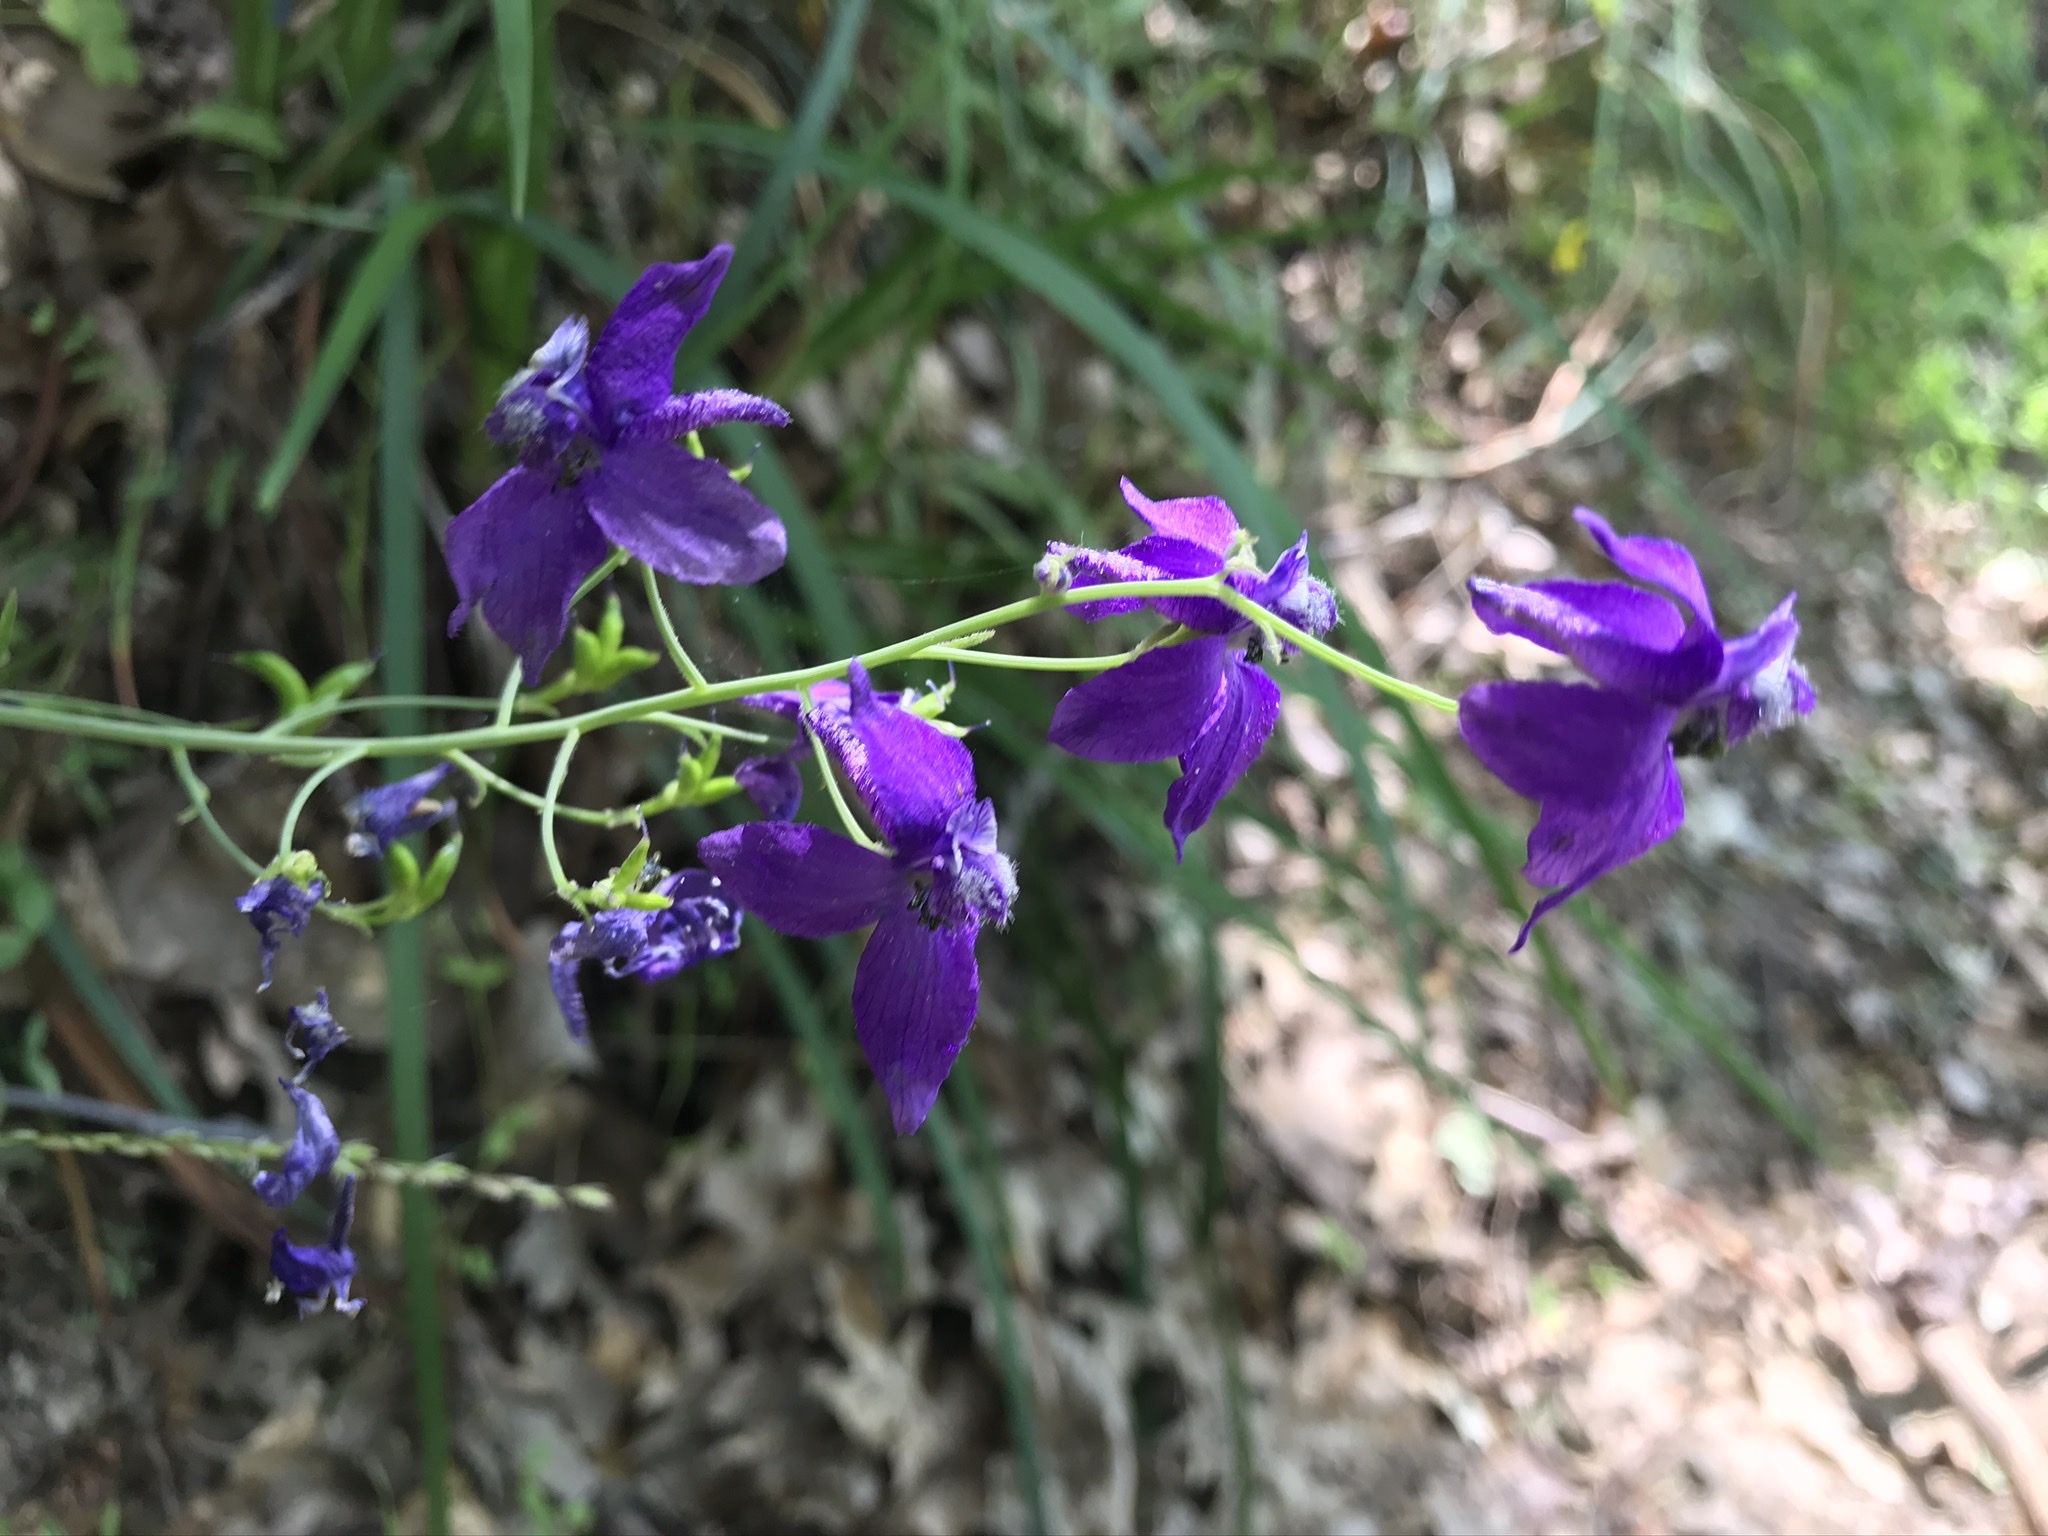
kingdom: Plantae
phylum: Tracheophyta
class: Magnoliopsida
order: Ranunculales
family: Ranunculaceae
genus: Delphinium
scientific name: Delphinium patens
